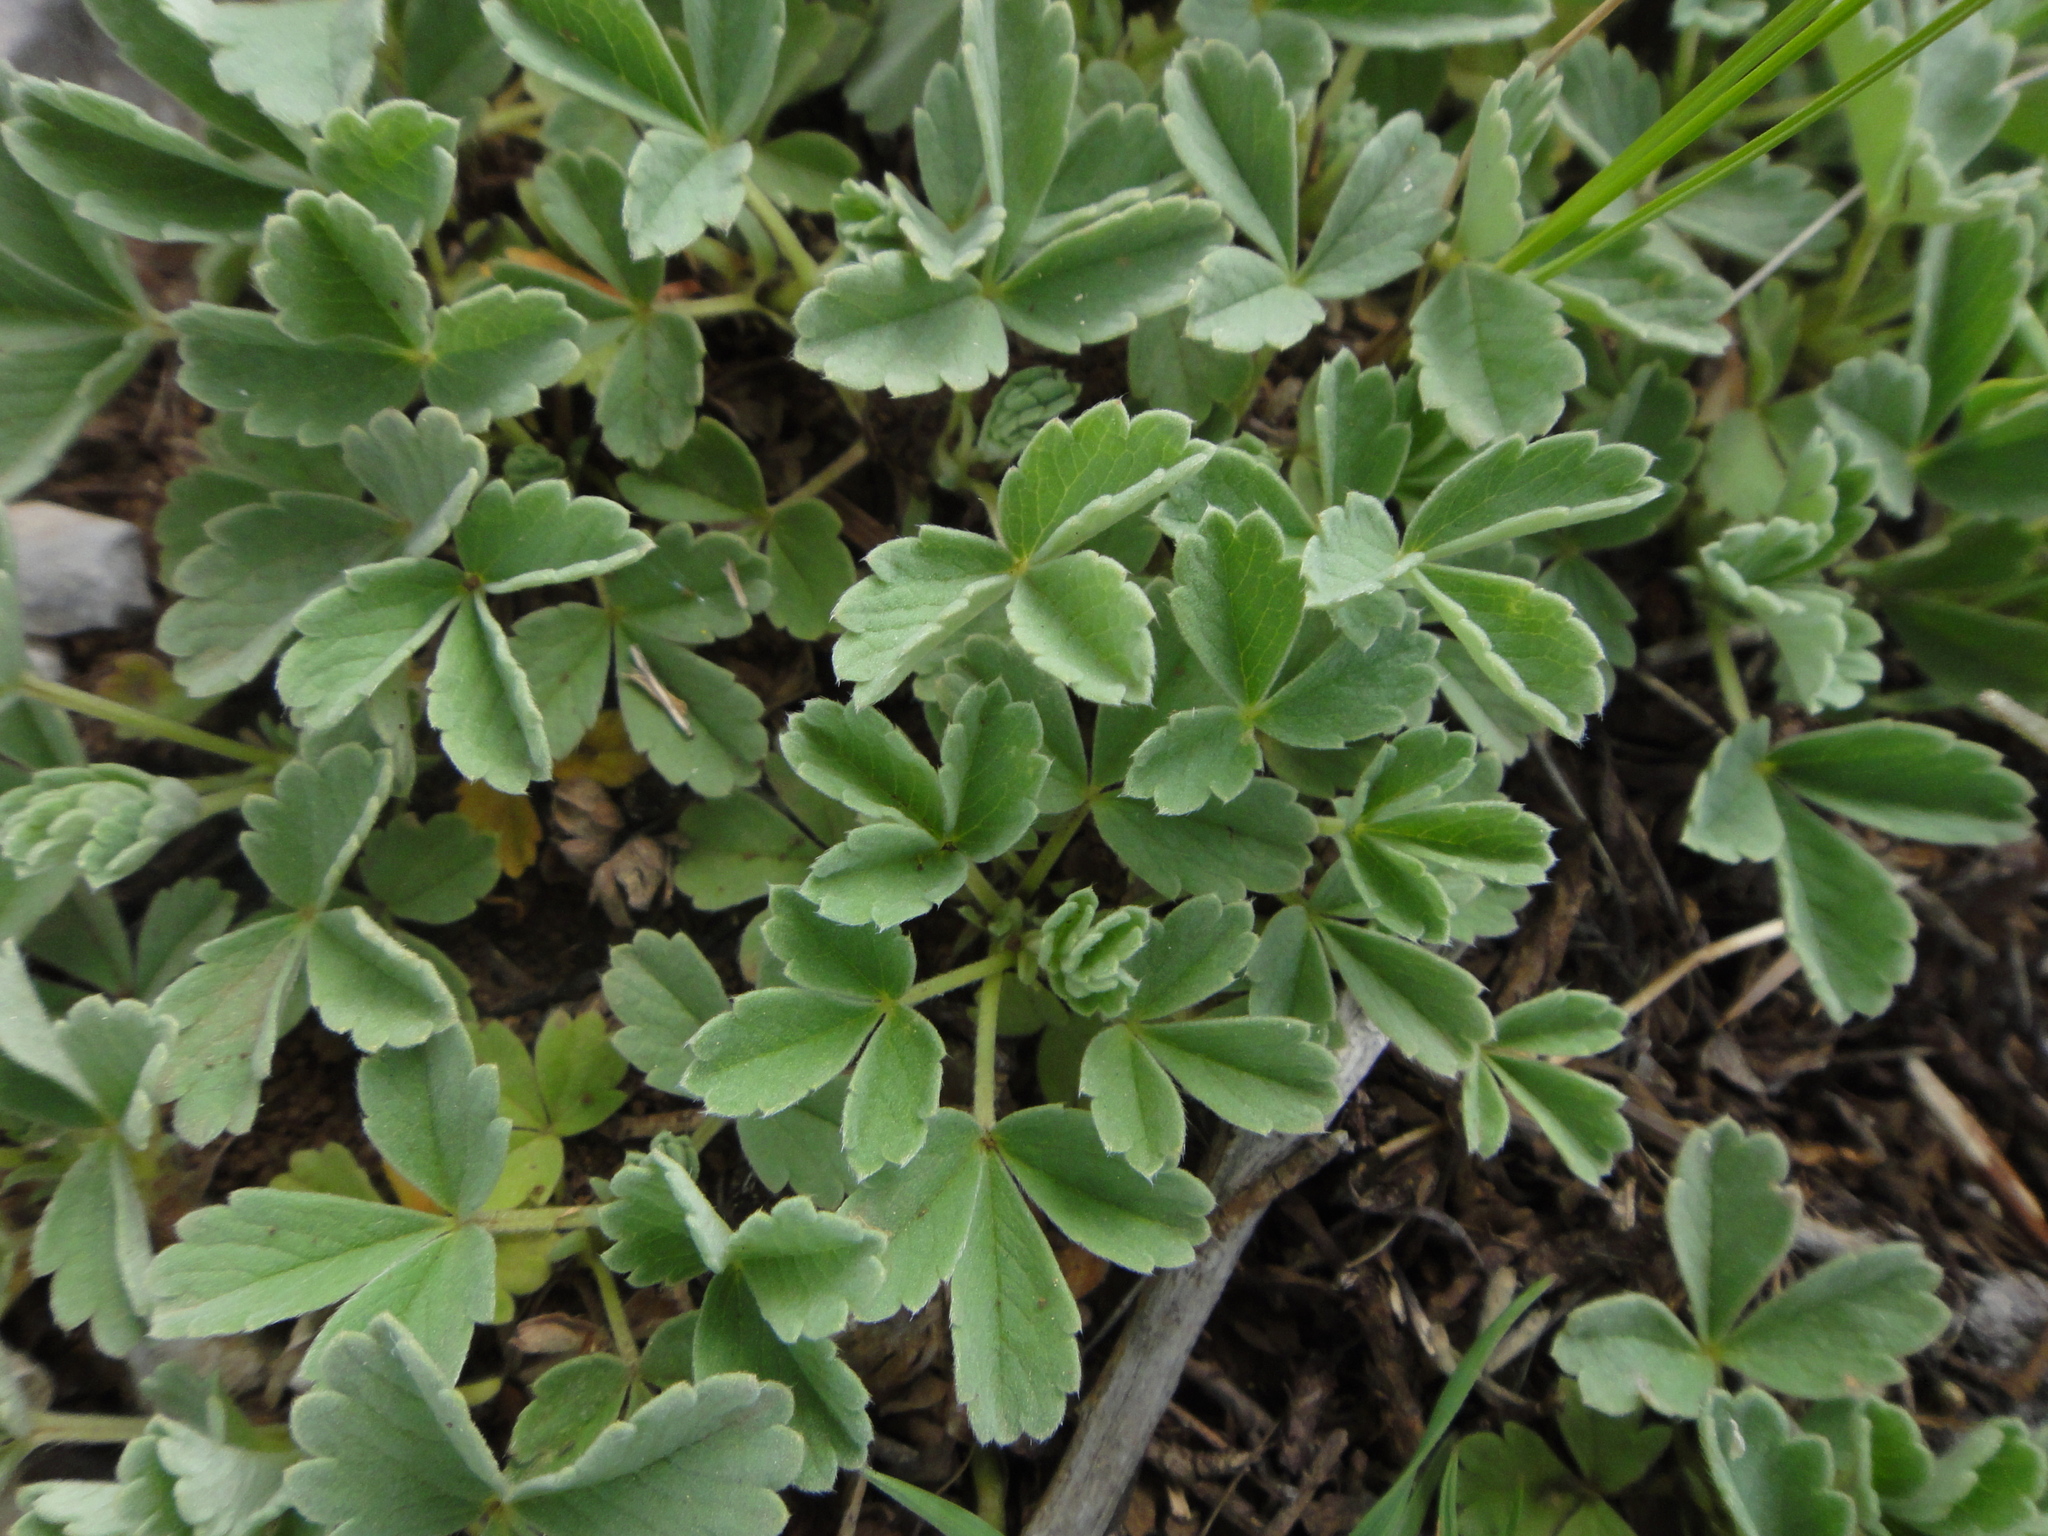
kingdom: Plantae
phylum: Tracheophyta
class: Magnoliopsida
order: Rosales
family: Rosaceae
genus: Potentilla
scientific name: Potentilla tommasiniana
